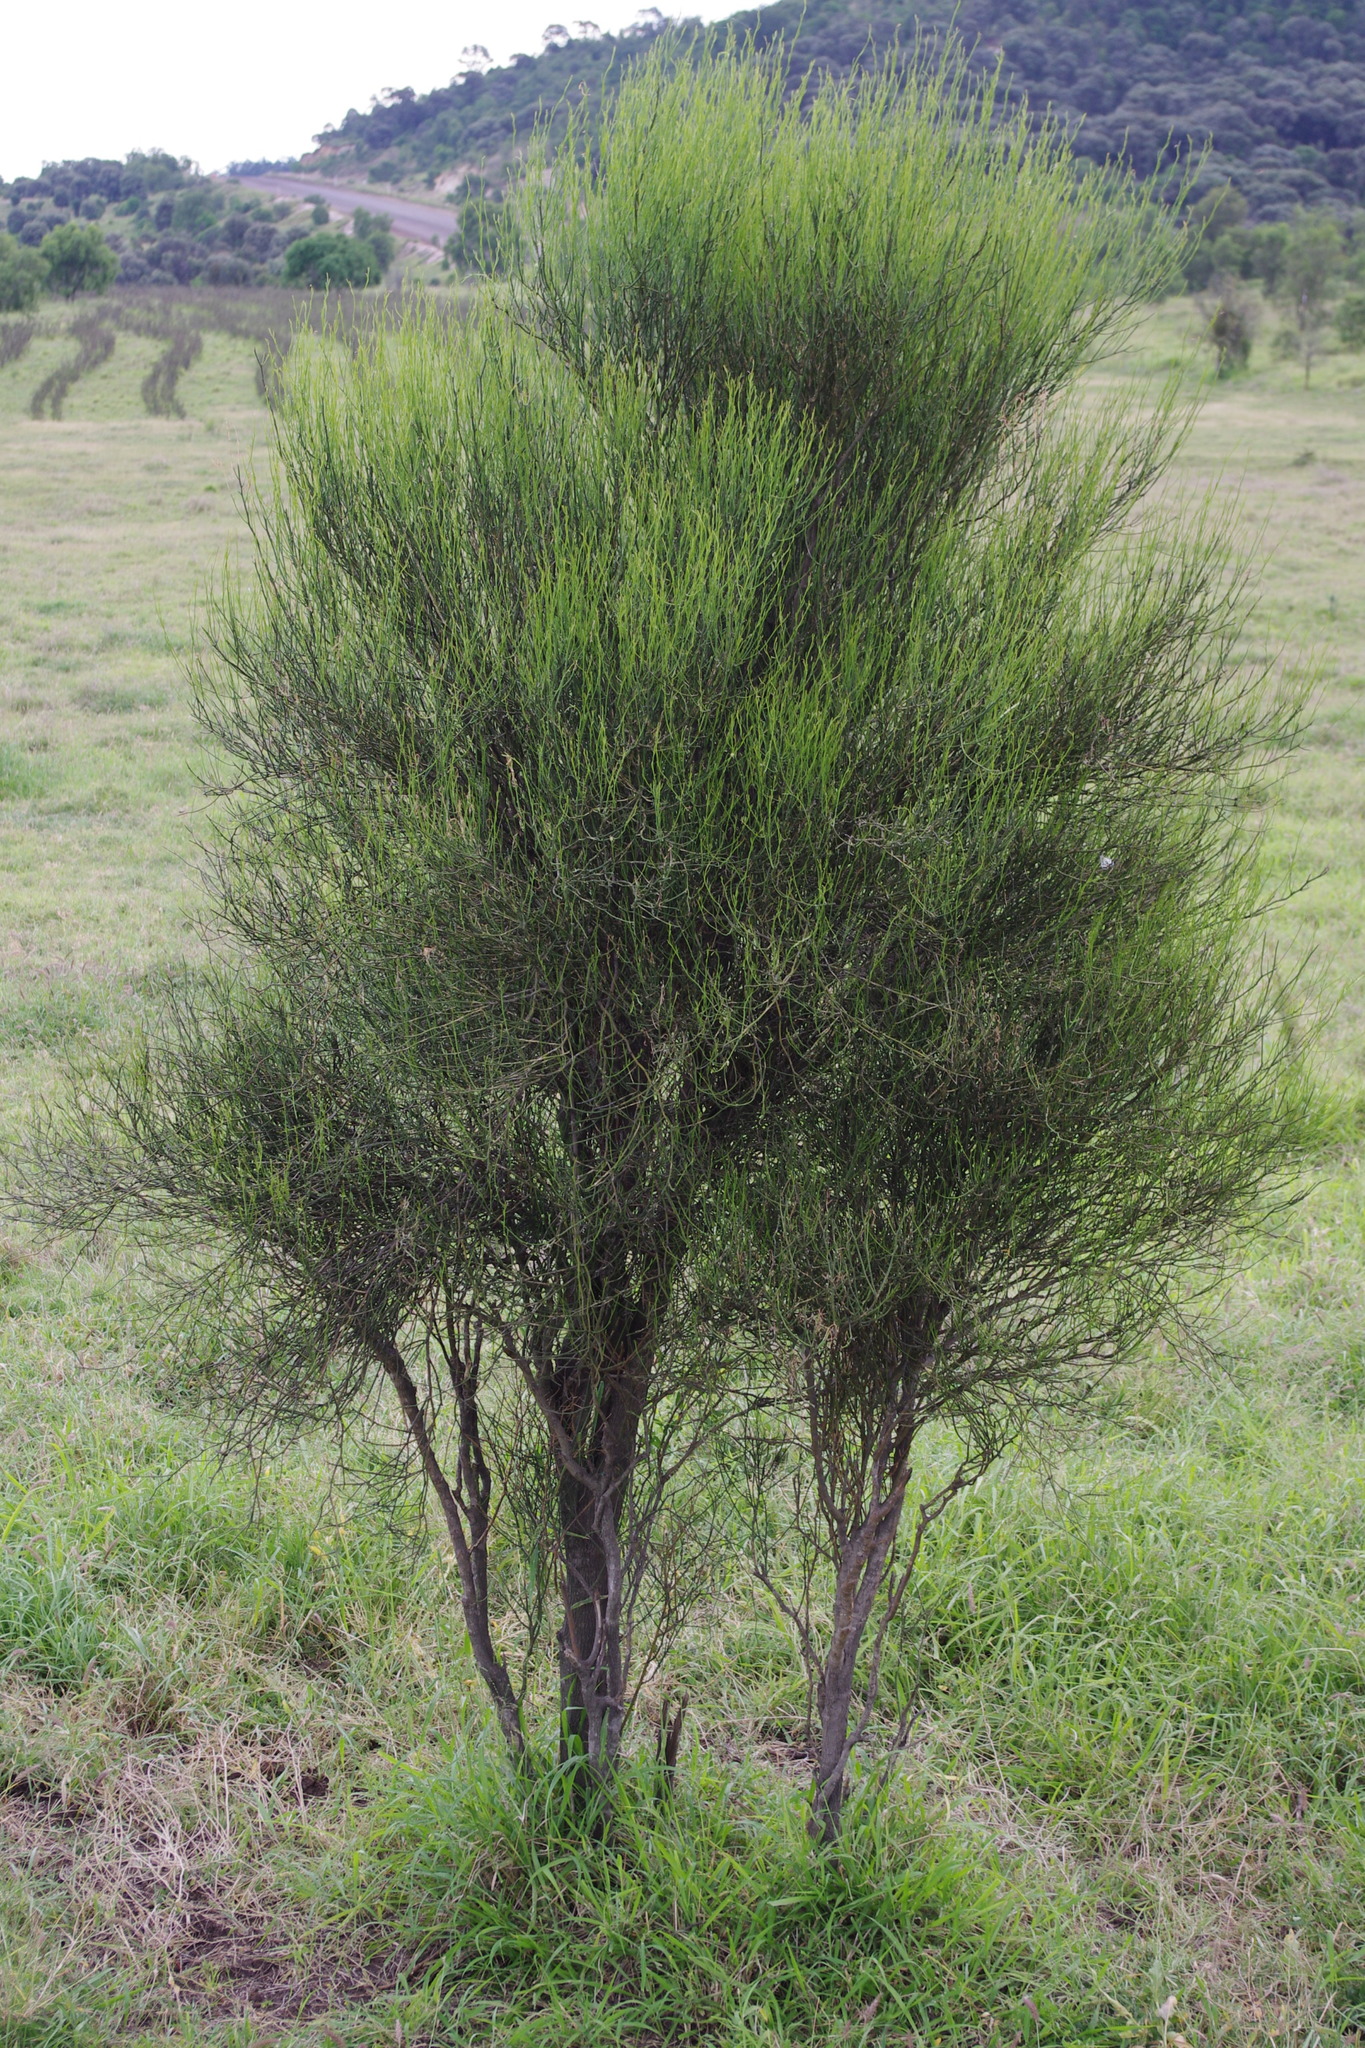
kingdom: Plantae
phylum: Tracheophyta
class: Magnoliopsida
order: Brassicales
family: Capparaceae
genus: Apophyllum
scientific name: Apophyllum anomalum
